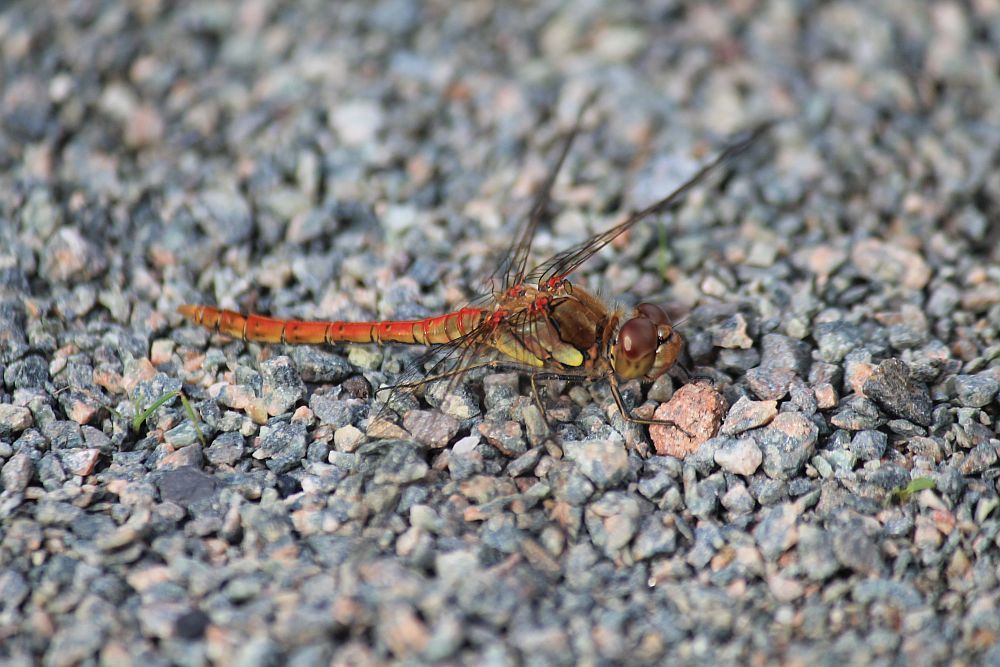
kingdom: Animalia
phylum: Arthropoda
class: Insecta
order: Odonata
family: Libellulidae
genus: Sympetrum
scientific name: Sympetrum striolatum
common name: Common darter
